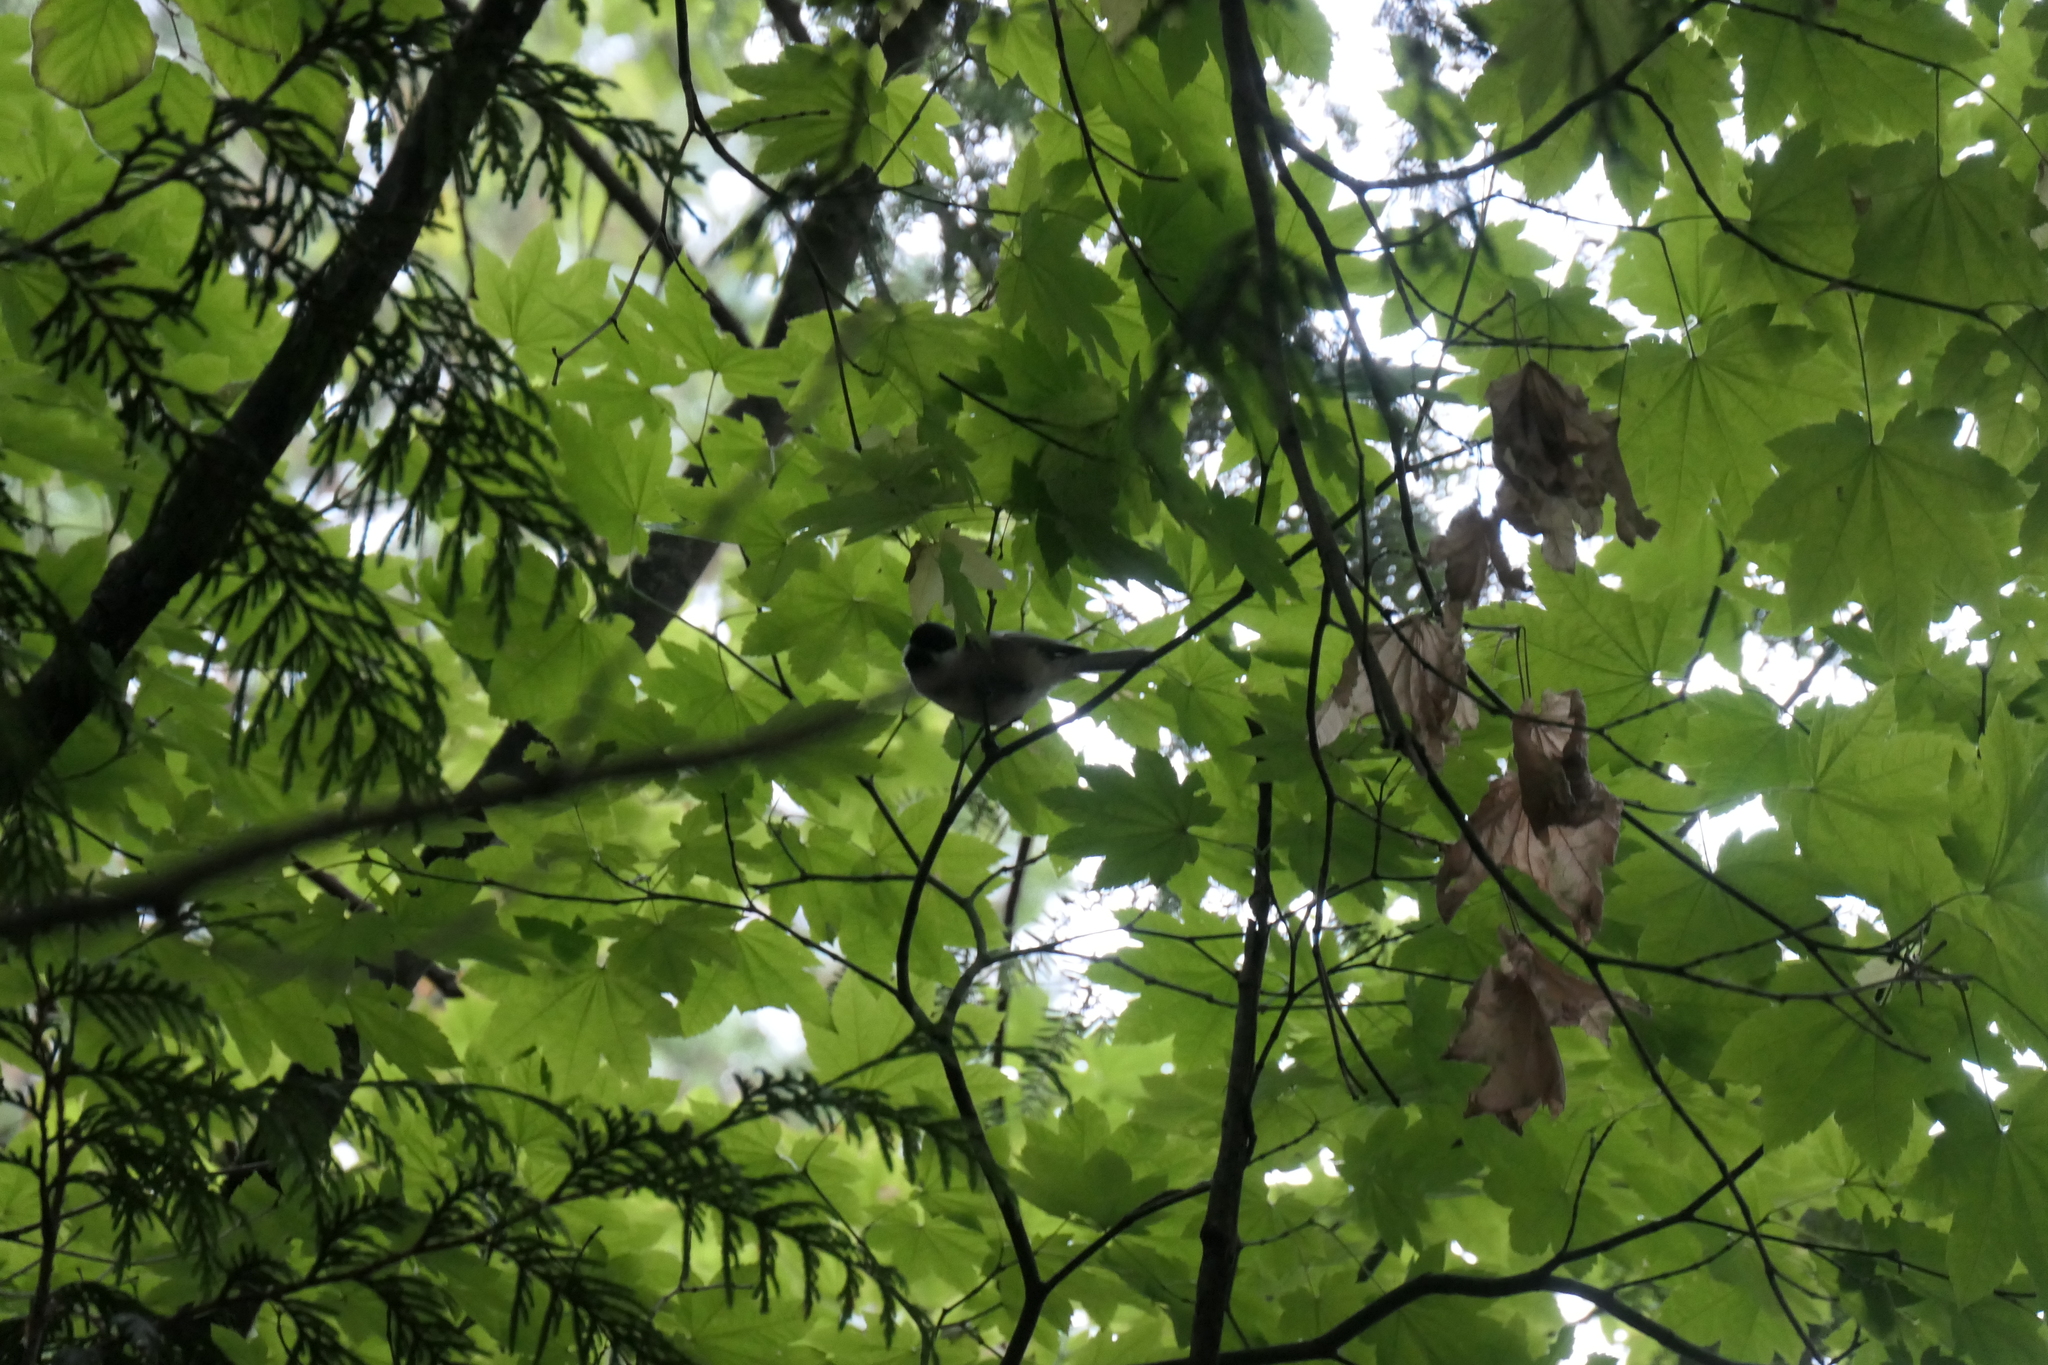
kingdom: Animalia
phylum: Chordata
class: Aves
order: Passeriformes
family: Paridae
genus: Poecile
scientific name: Poecile atricapillus
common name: Black-capped chickadee
